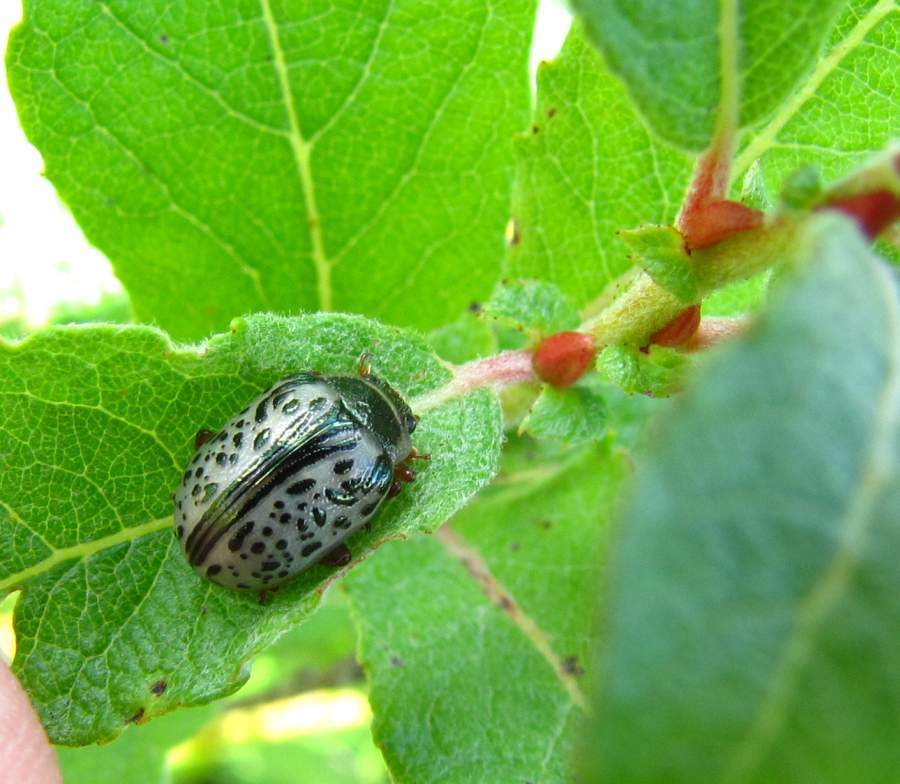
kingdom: Animalia
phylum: Arthropoda
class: Insecta
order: Coleoptera
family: Chrysomelidae
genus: Calligrapha
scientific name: Calligrapha multipunctata
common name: Common willow calligrapher beetle
